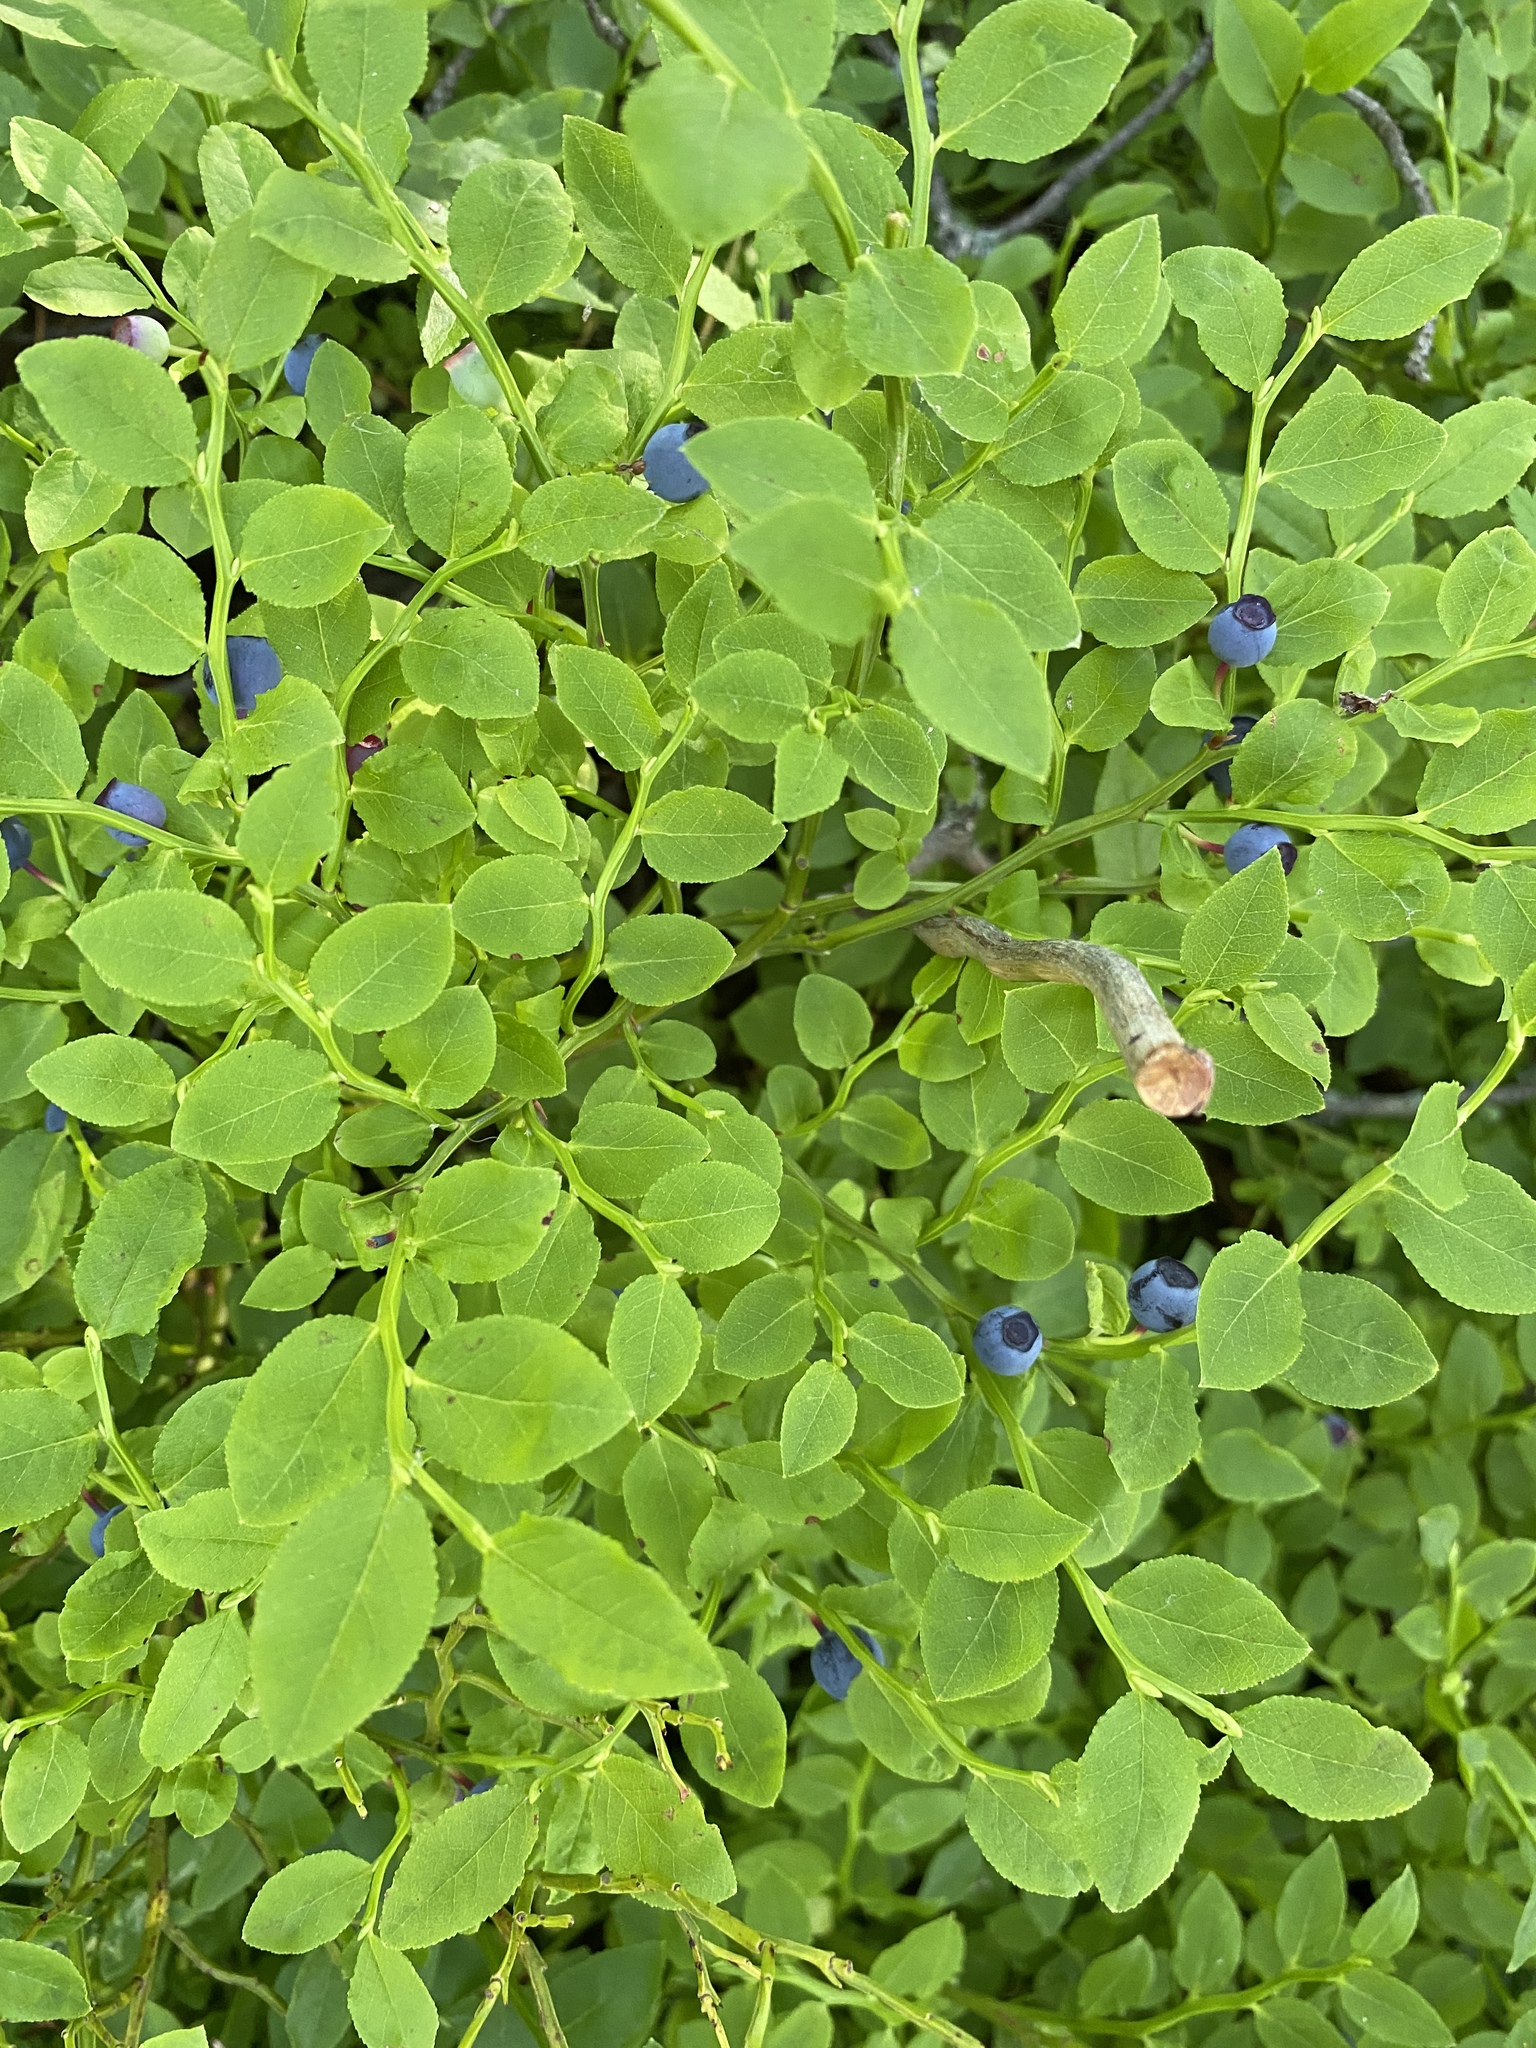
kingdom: Plantae
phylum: Tracheophyta
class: Magnoliopsida
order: Ericales
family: Ericaceae
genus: Vaccinium
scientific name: Vaccinium myrtillus
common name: Bilberry
